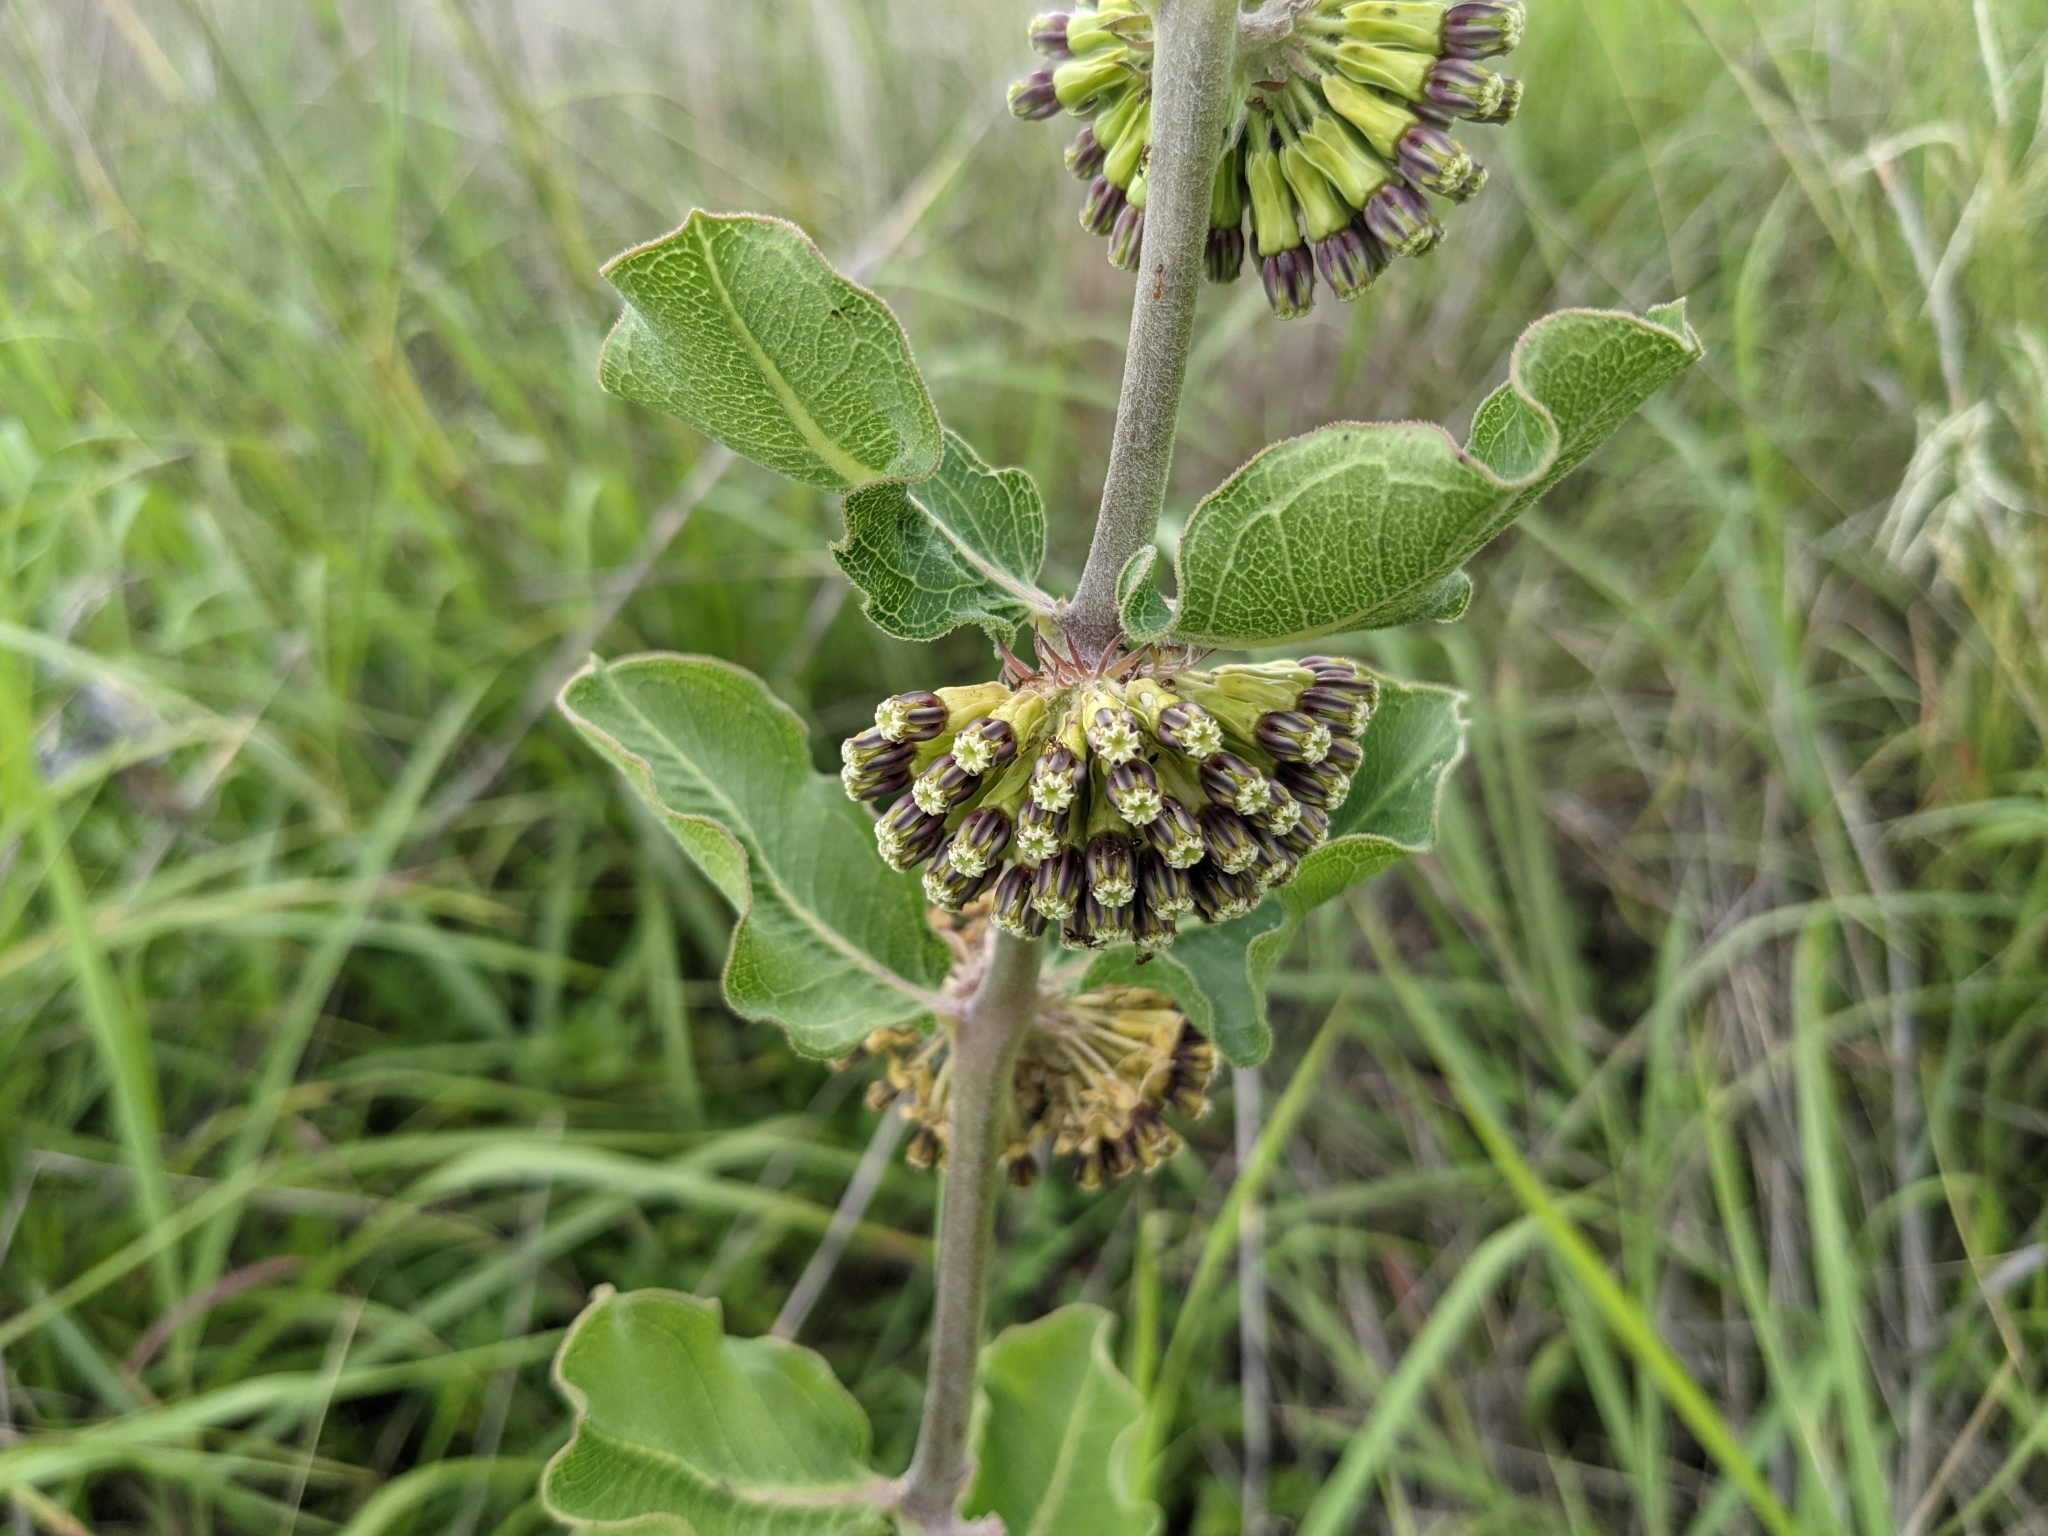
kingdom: Plantae
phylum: Tracheophyta
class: Magnoliopsida
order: Gentianales
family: Apocynaceae
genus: Asclepias
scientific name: Asclepias viridiflora
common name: Green comet milkweed
